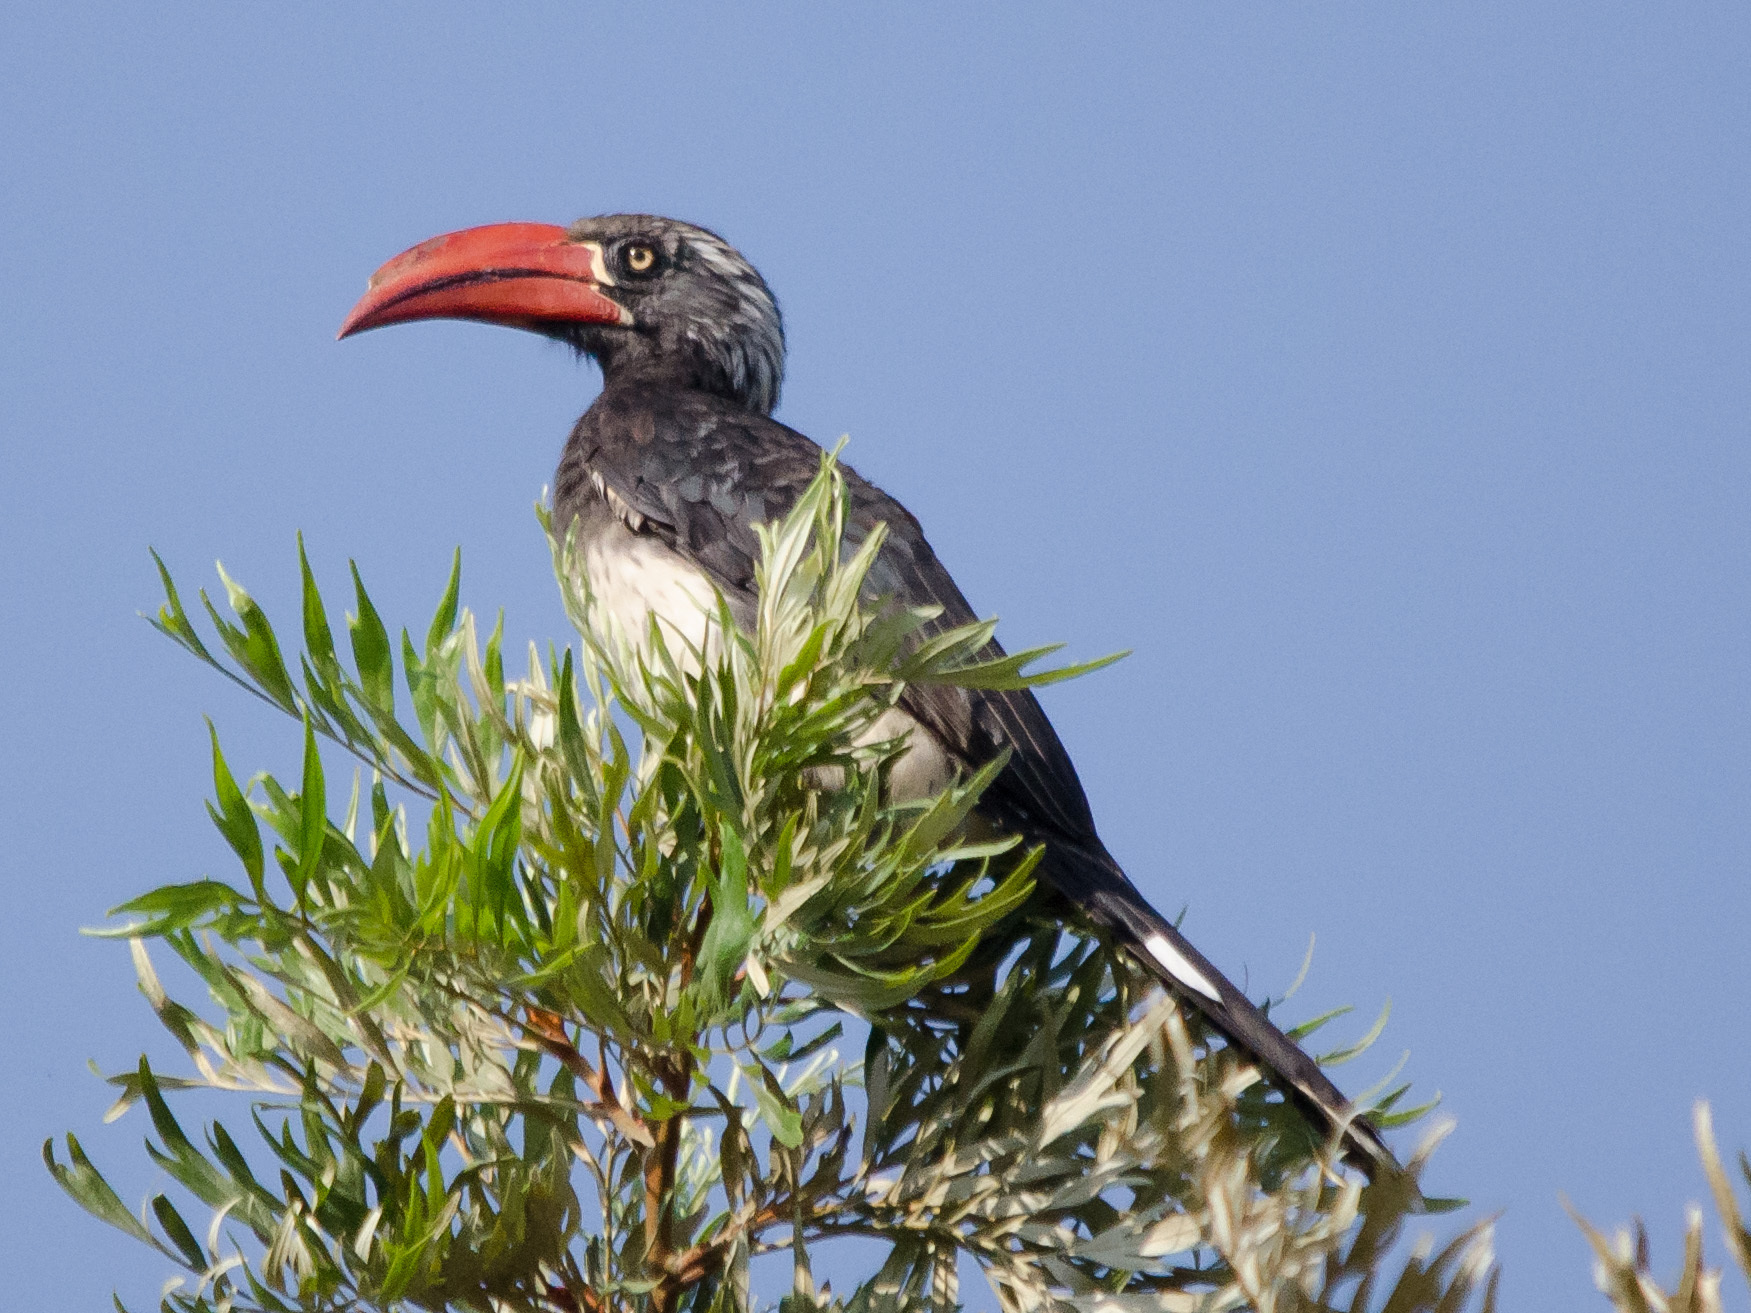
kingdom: Animalia
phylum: Chordata
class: Aves
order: Bucerotiformes
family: Bucerotidae
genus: Lophoceros
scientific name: Lophoceros alboterminatus
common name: Crowned hornbill
